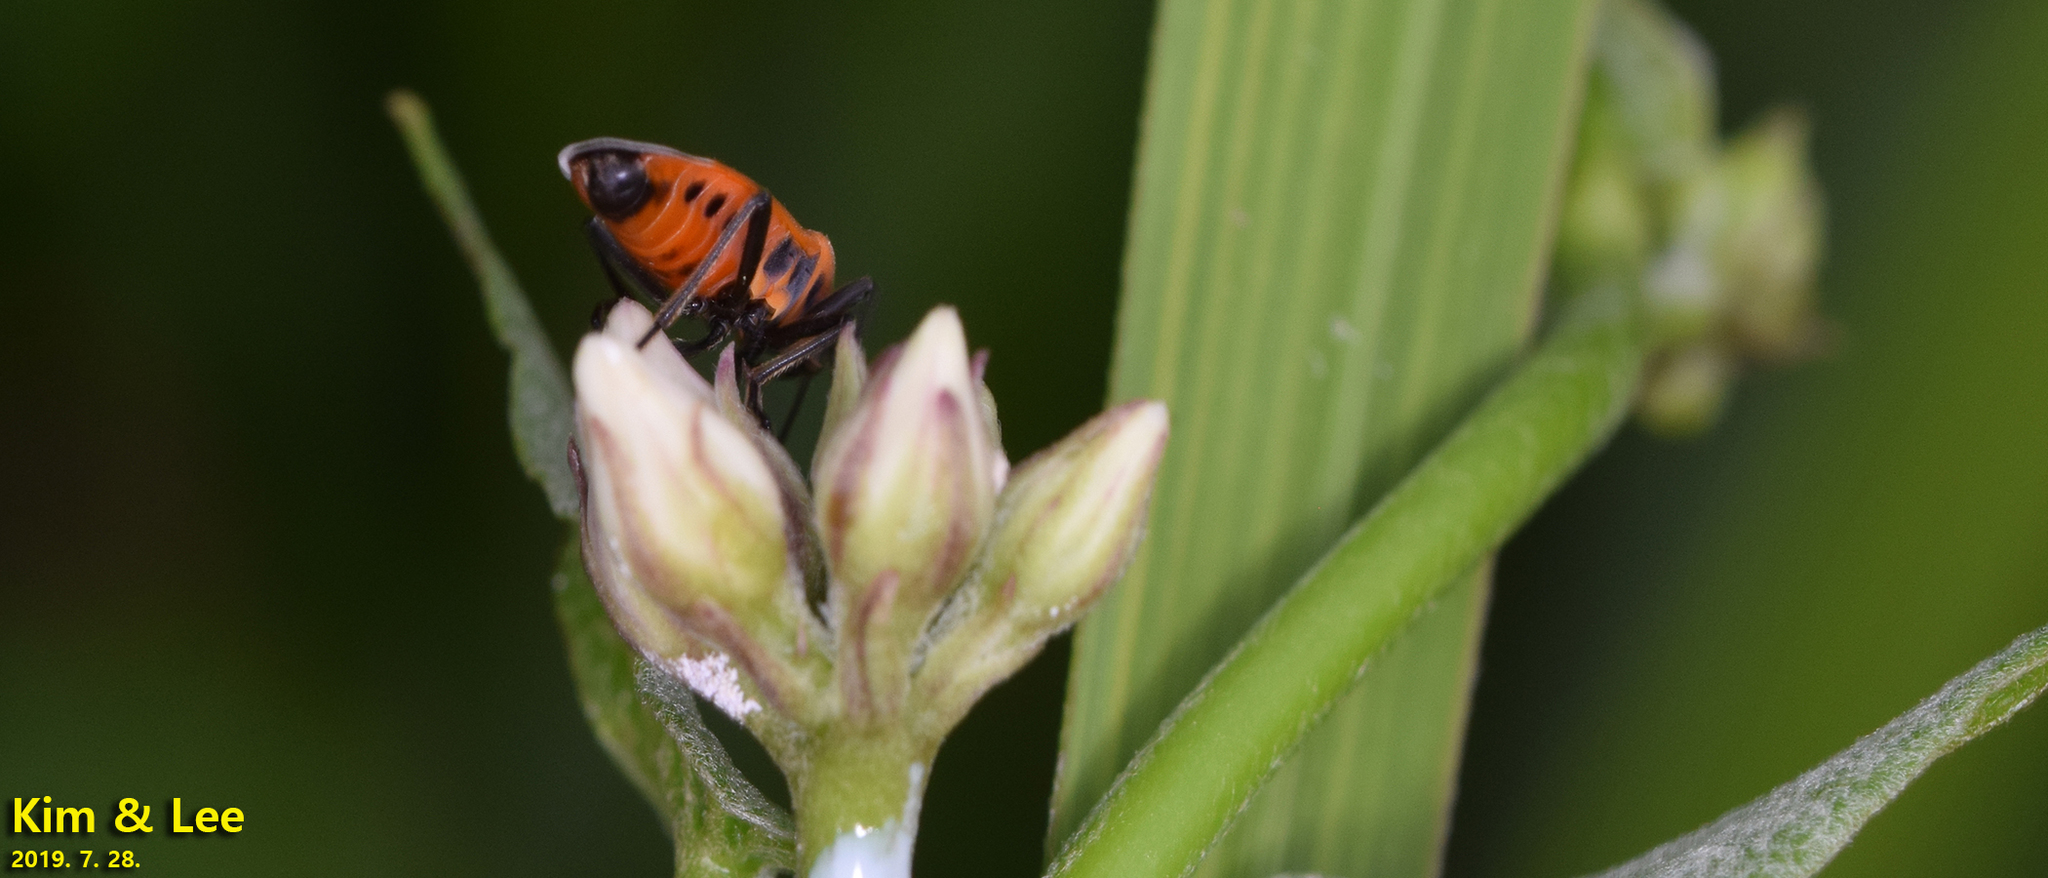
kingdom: Animalia
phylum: Arthropoda
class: Insecta
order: Hemiptera
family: Lygaeidae
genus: Tropidothorax
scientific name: Tropidothorax cruciger
